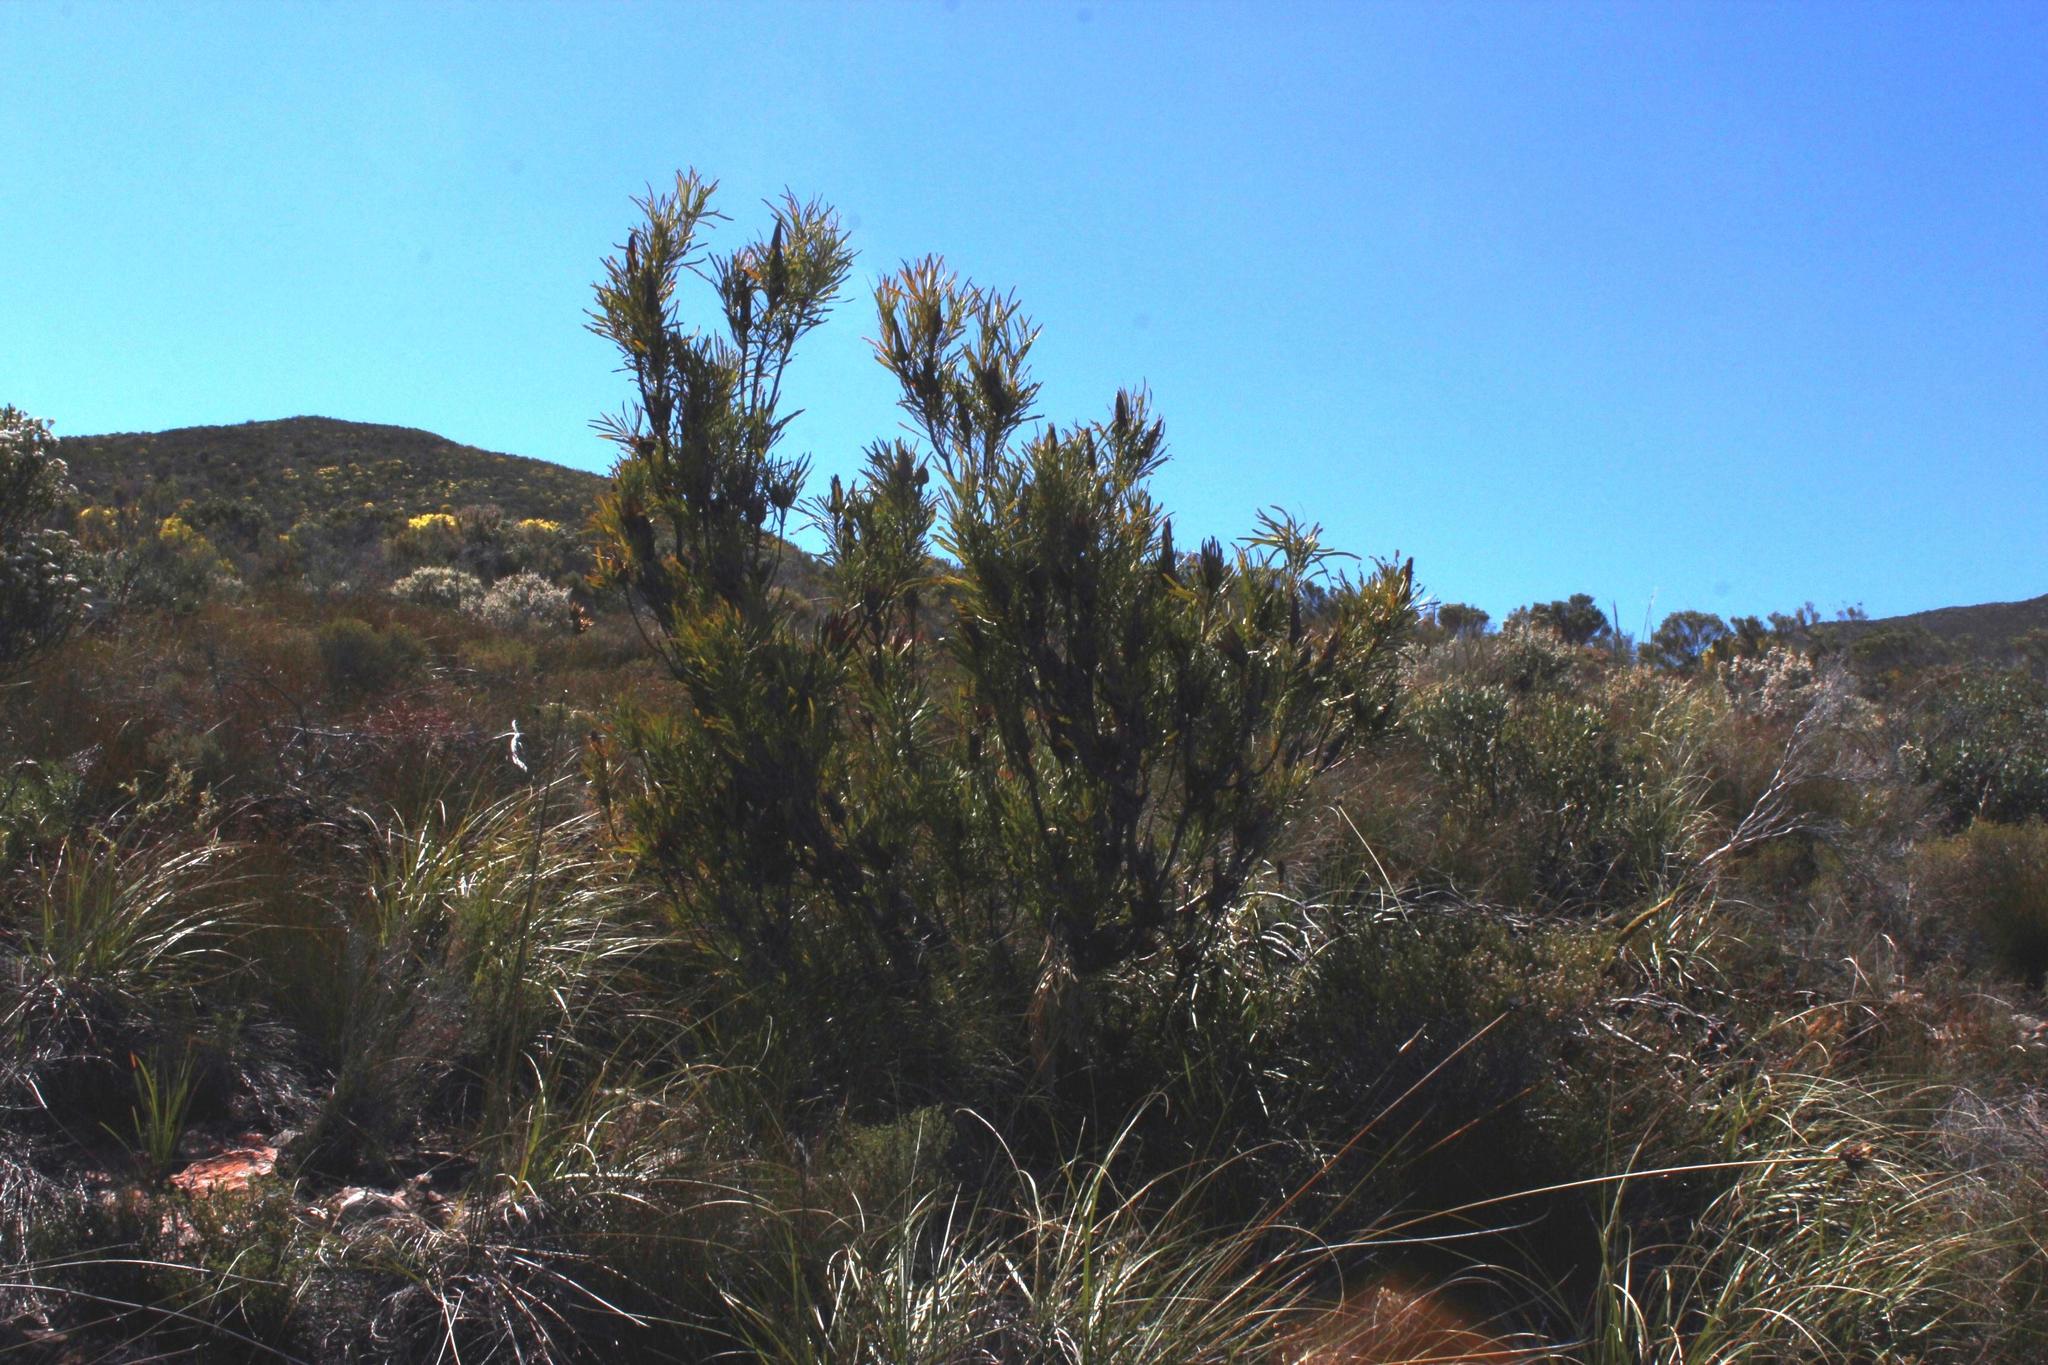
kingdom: Plantae
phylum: Tracheophyta
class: Magnoliopsida
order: Proteales
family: Proteaceae
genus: Protea
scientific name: Protea repens
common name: Sugarbush
